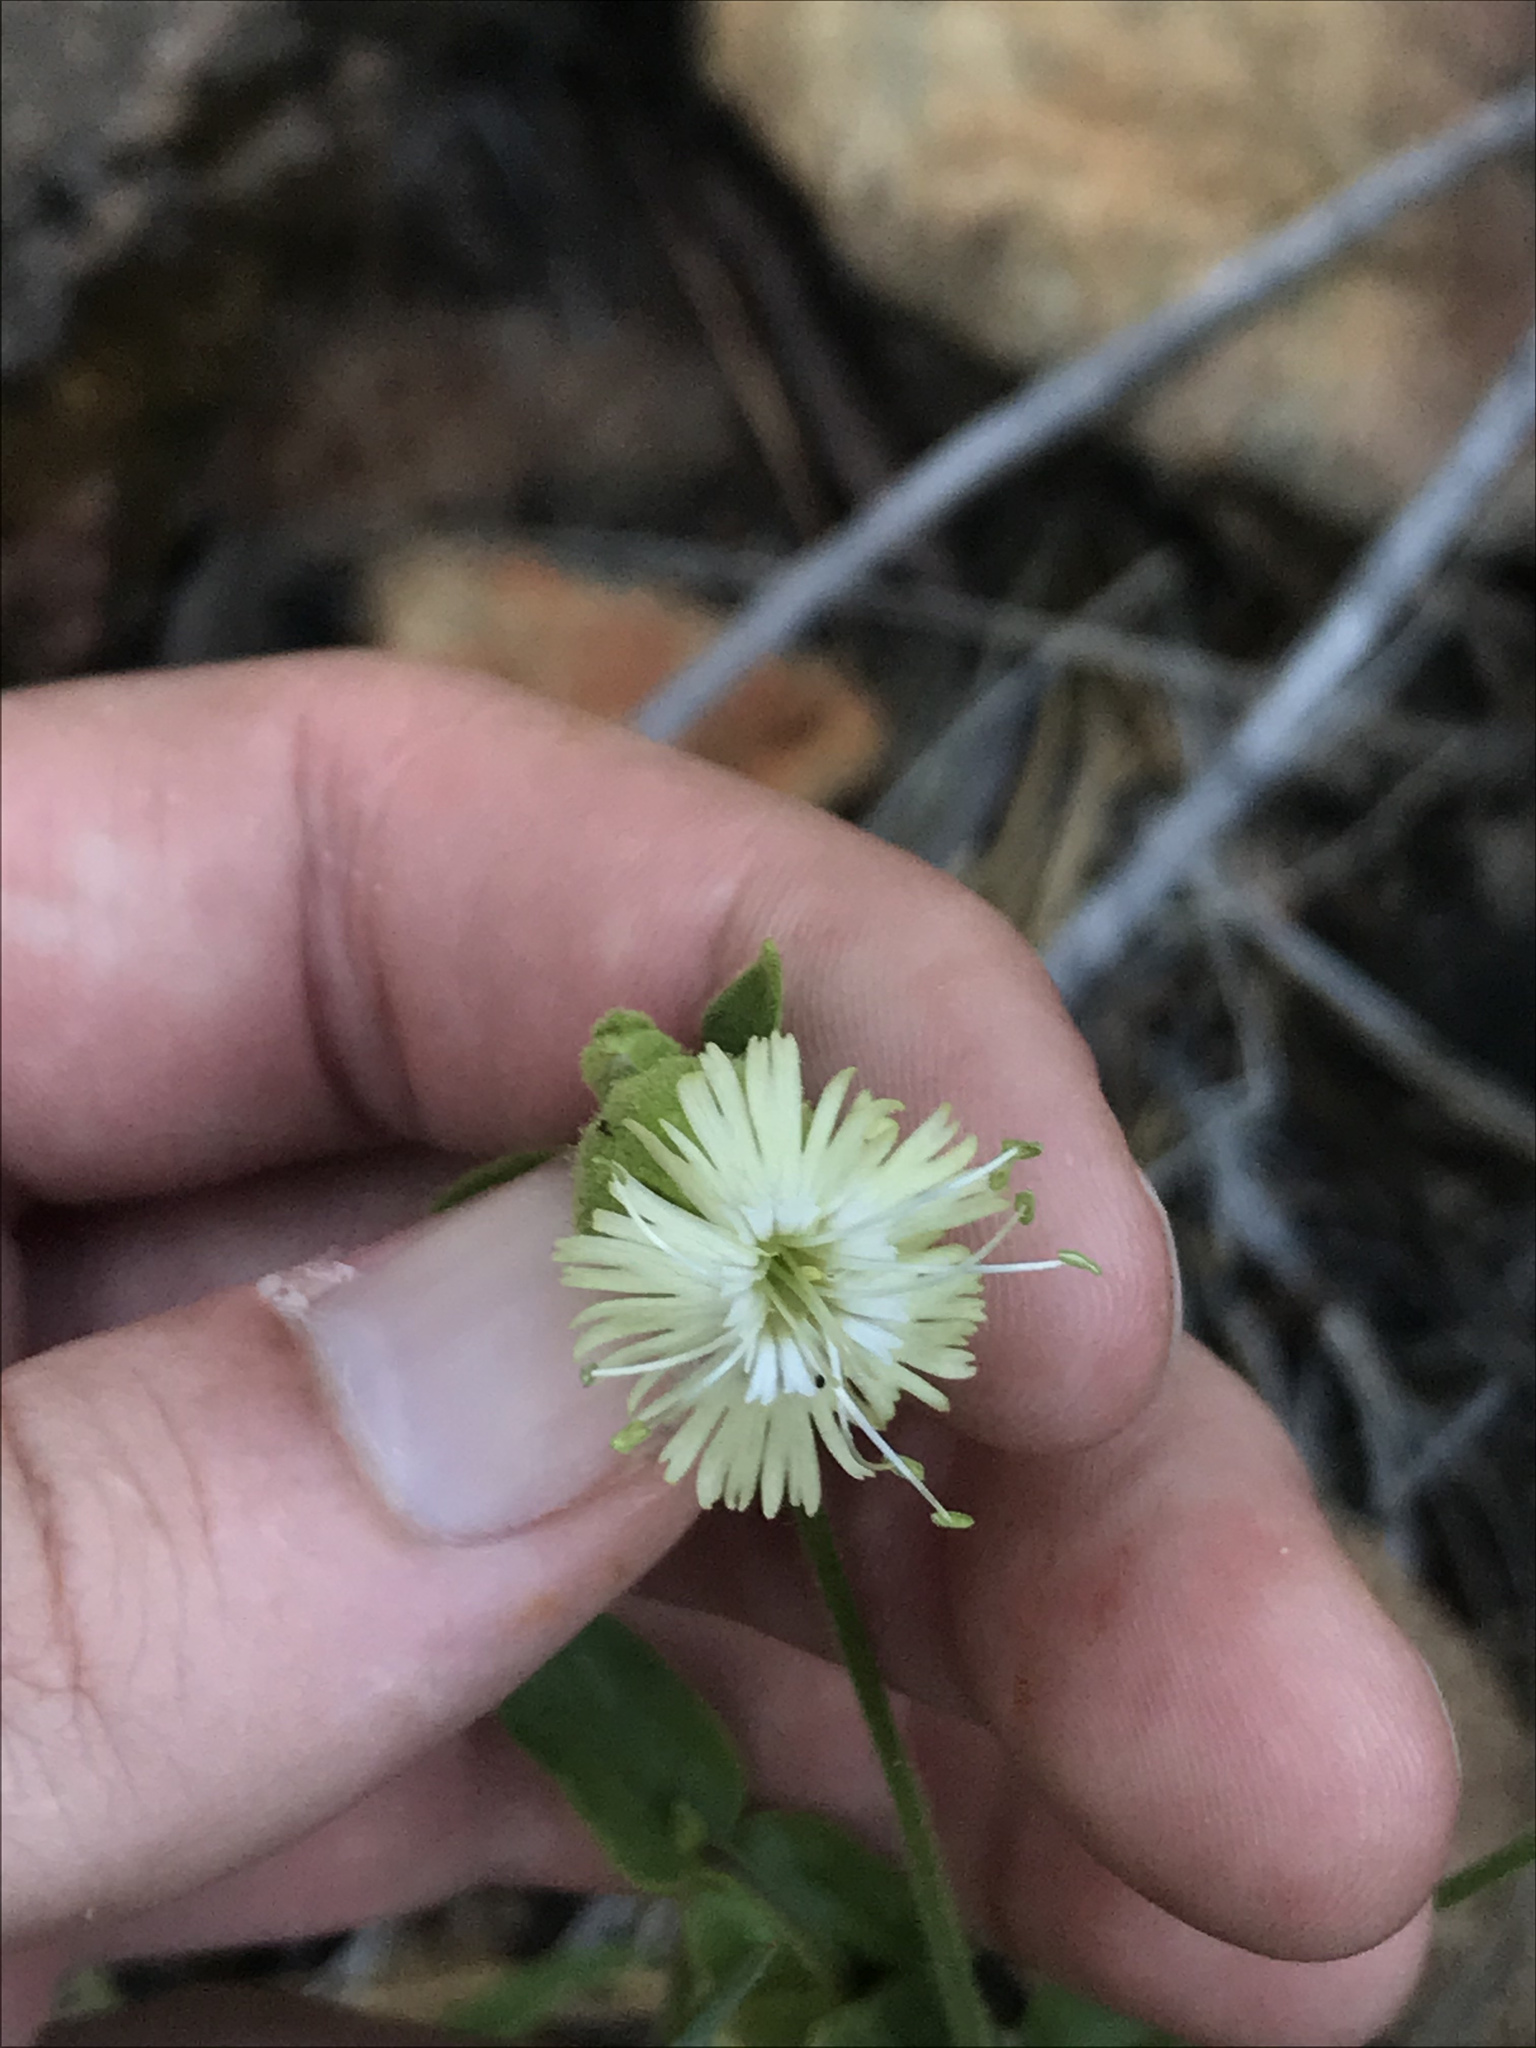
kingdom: Plantae
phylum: Tracheophyta
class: Magnoliopsida
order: Caryophyllales
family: Caryophyllaceae
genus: Silene
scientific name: Silene
